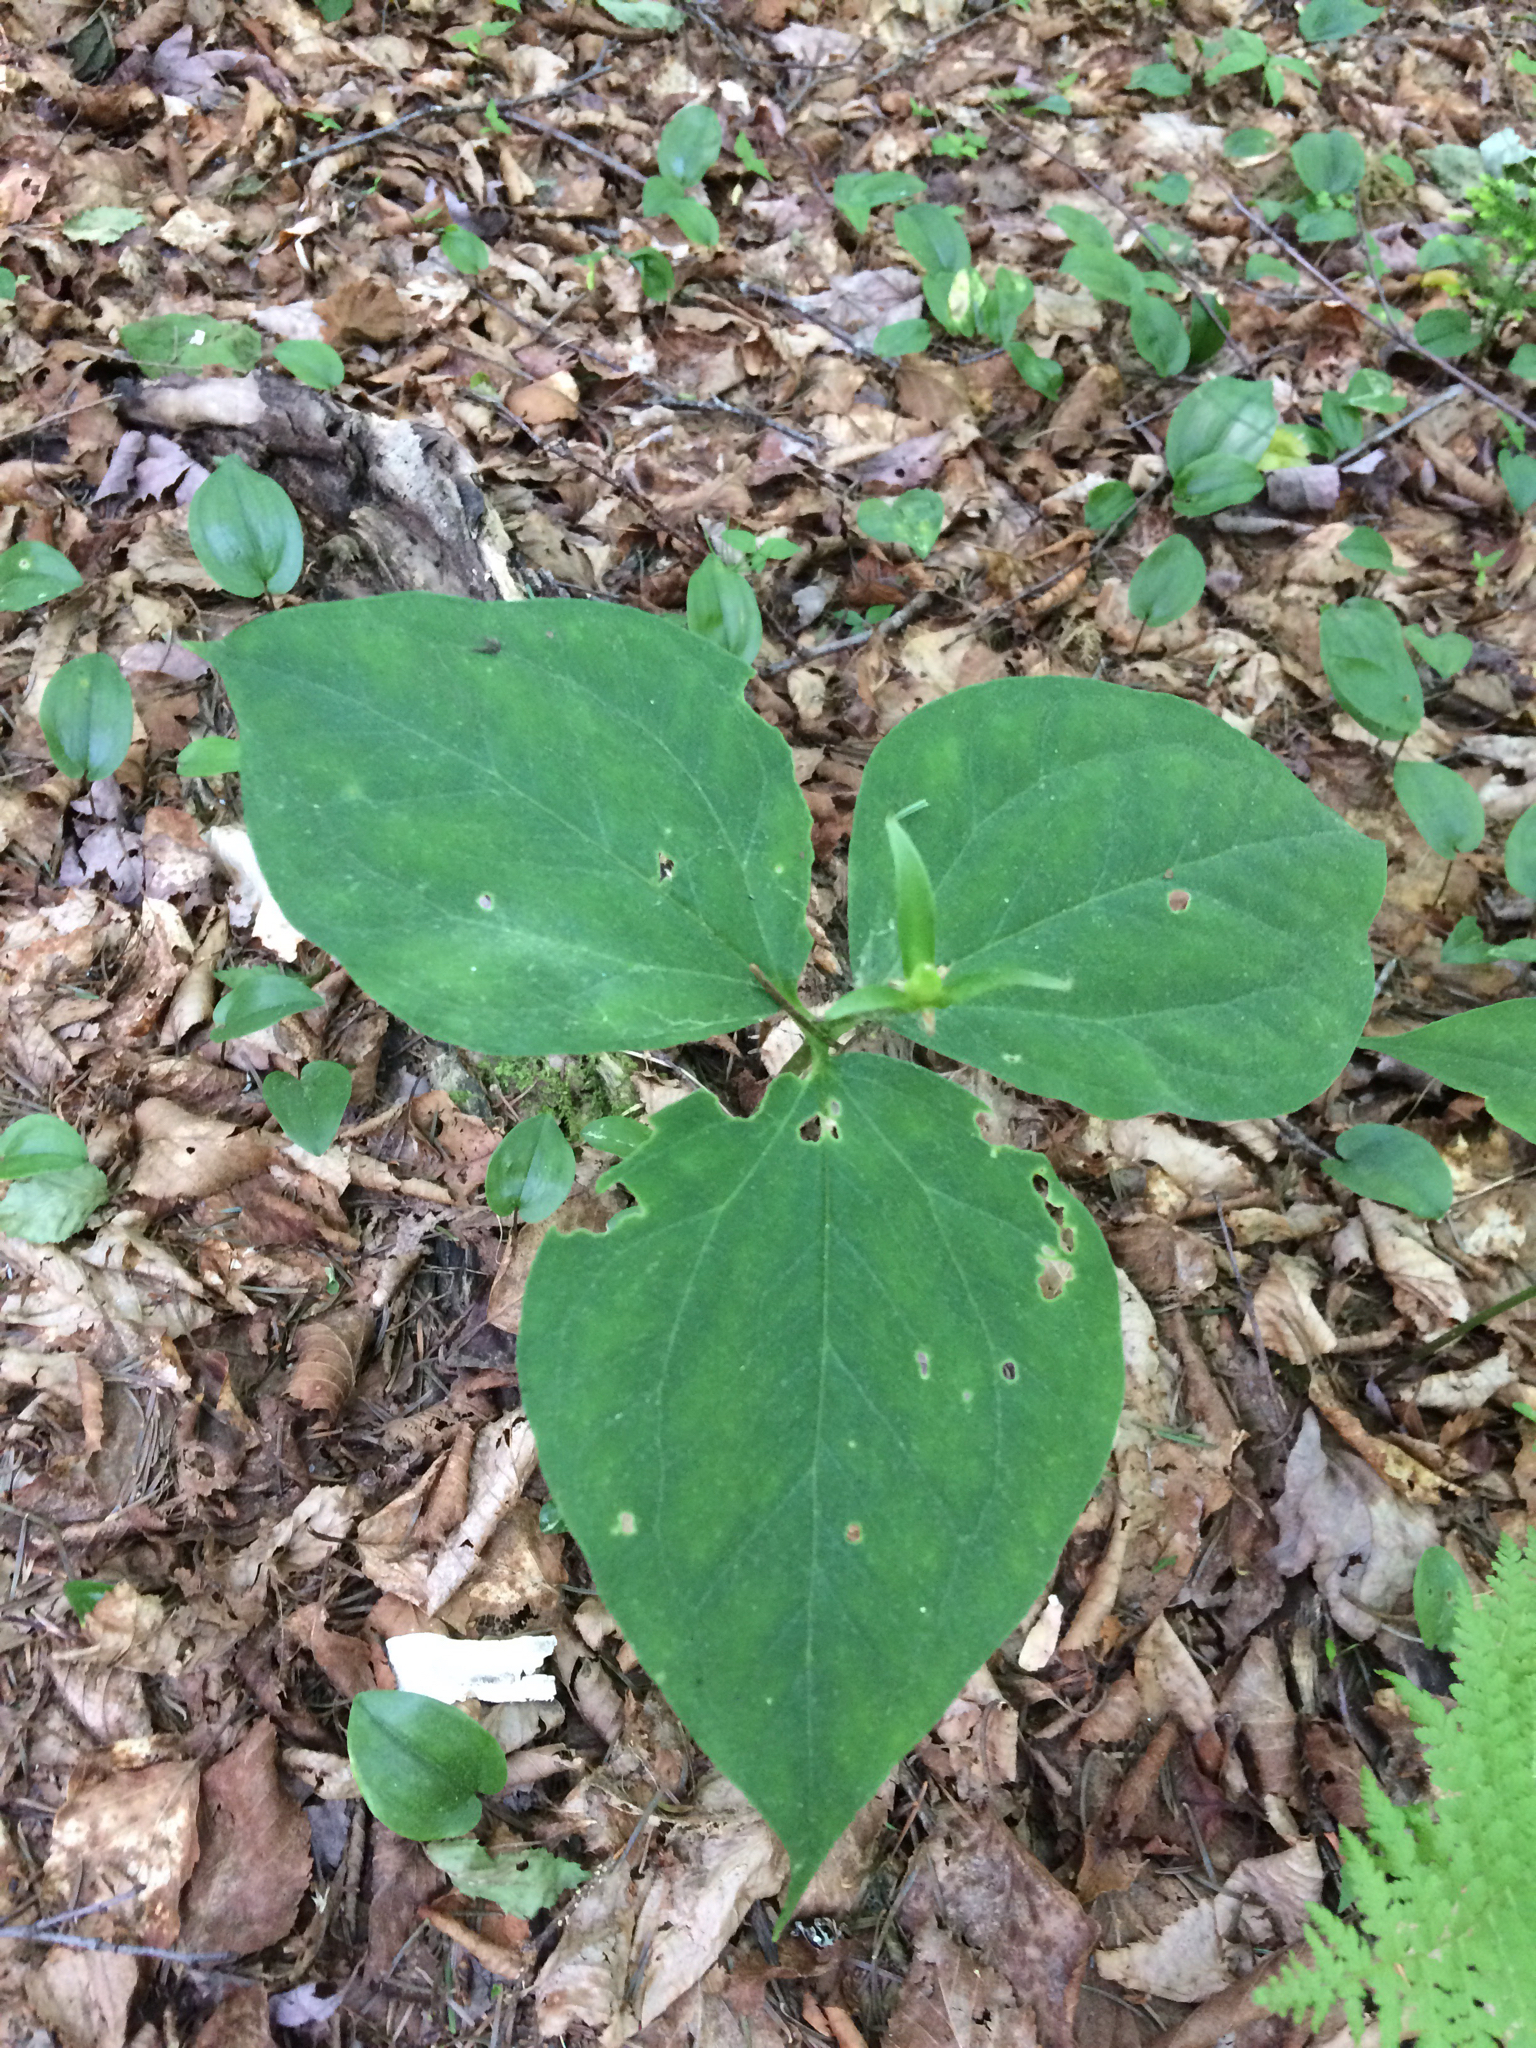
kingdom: Plantae
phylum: Tracheophyta
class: Liliopsida
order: Liliales
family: Melanthiaceae
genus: Trillium
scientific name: Trillium undulatum
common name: Paint trillium
